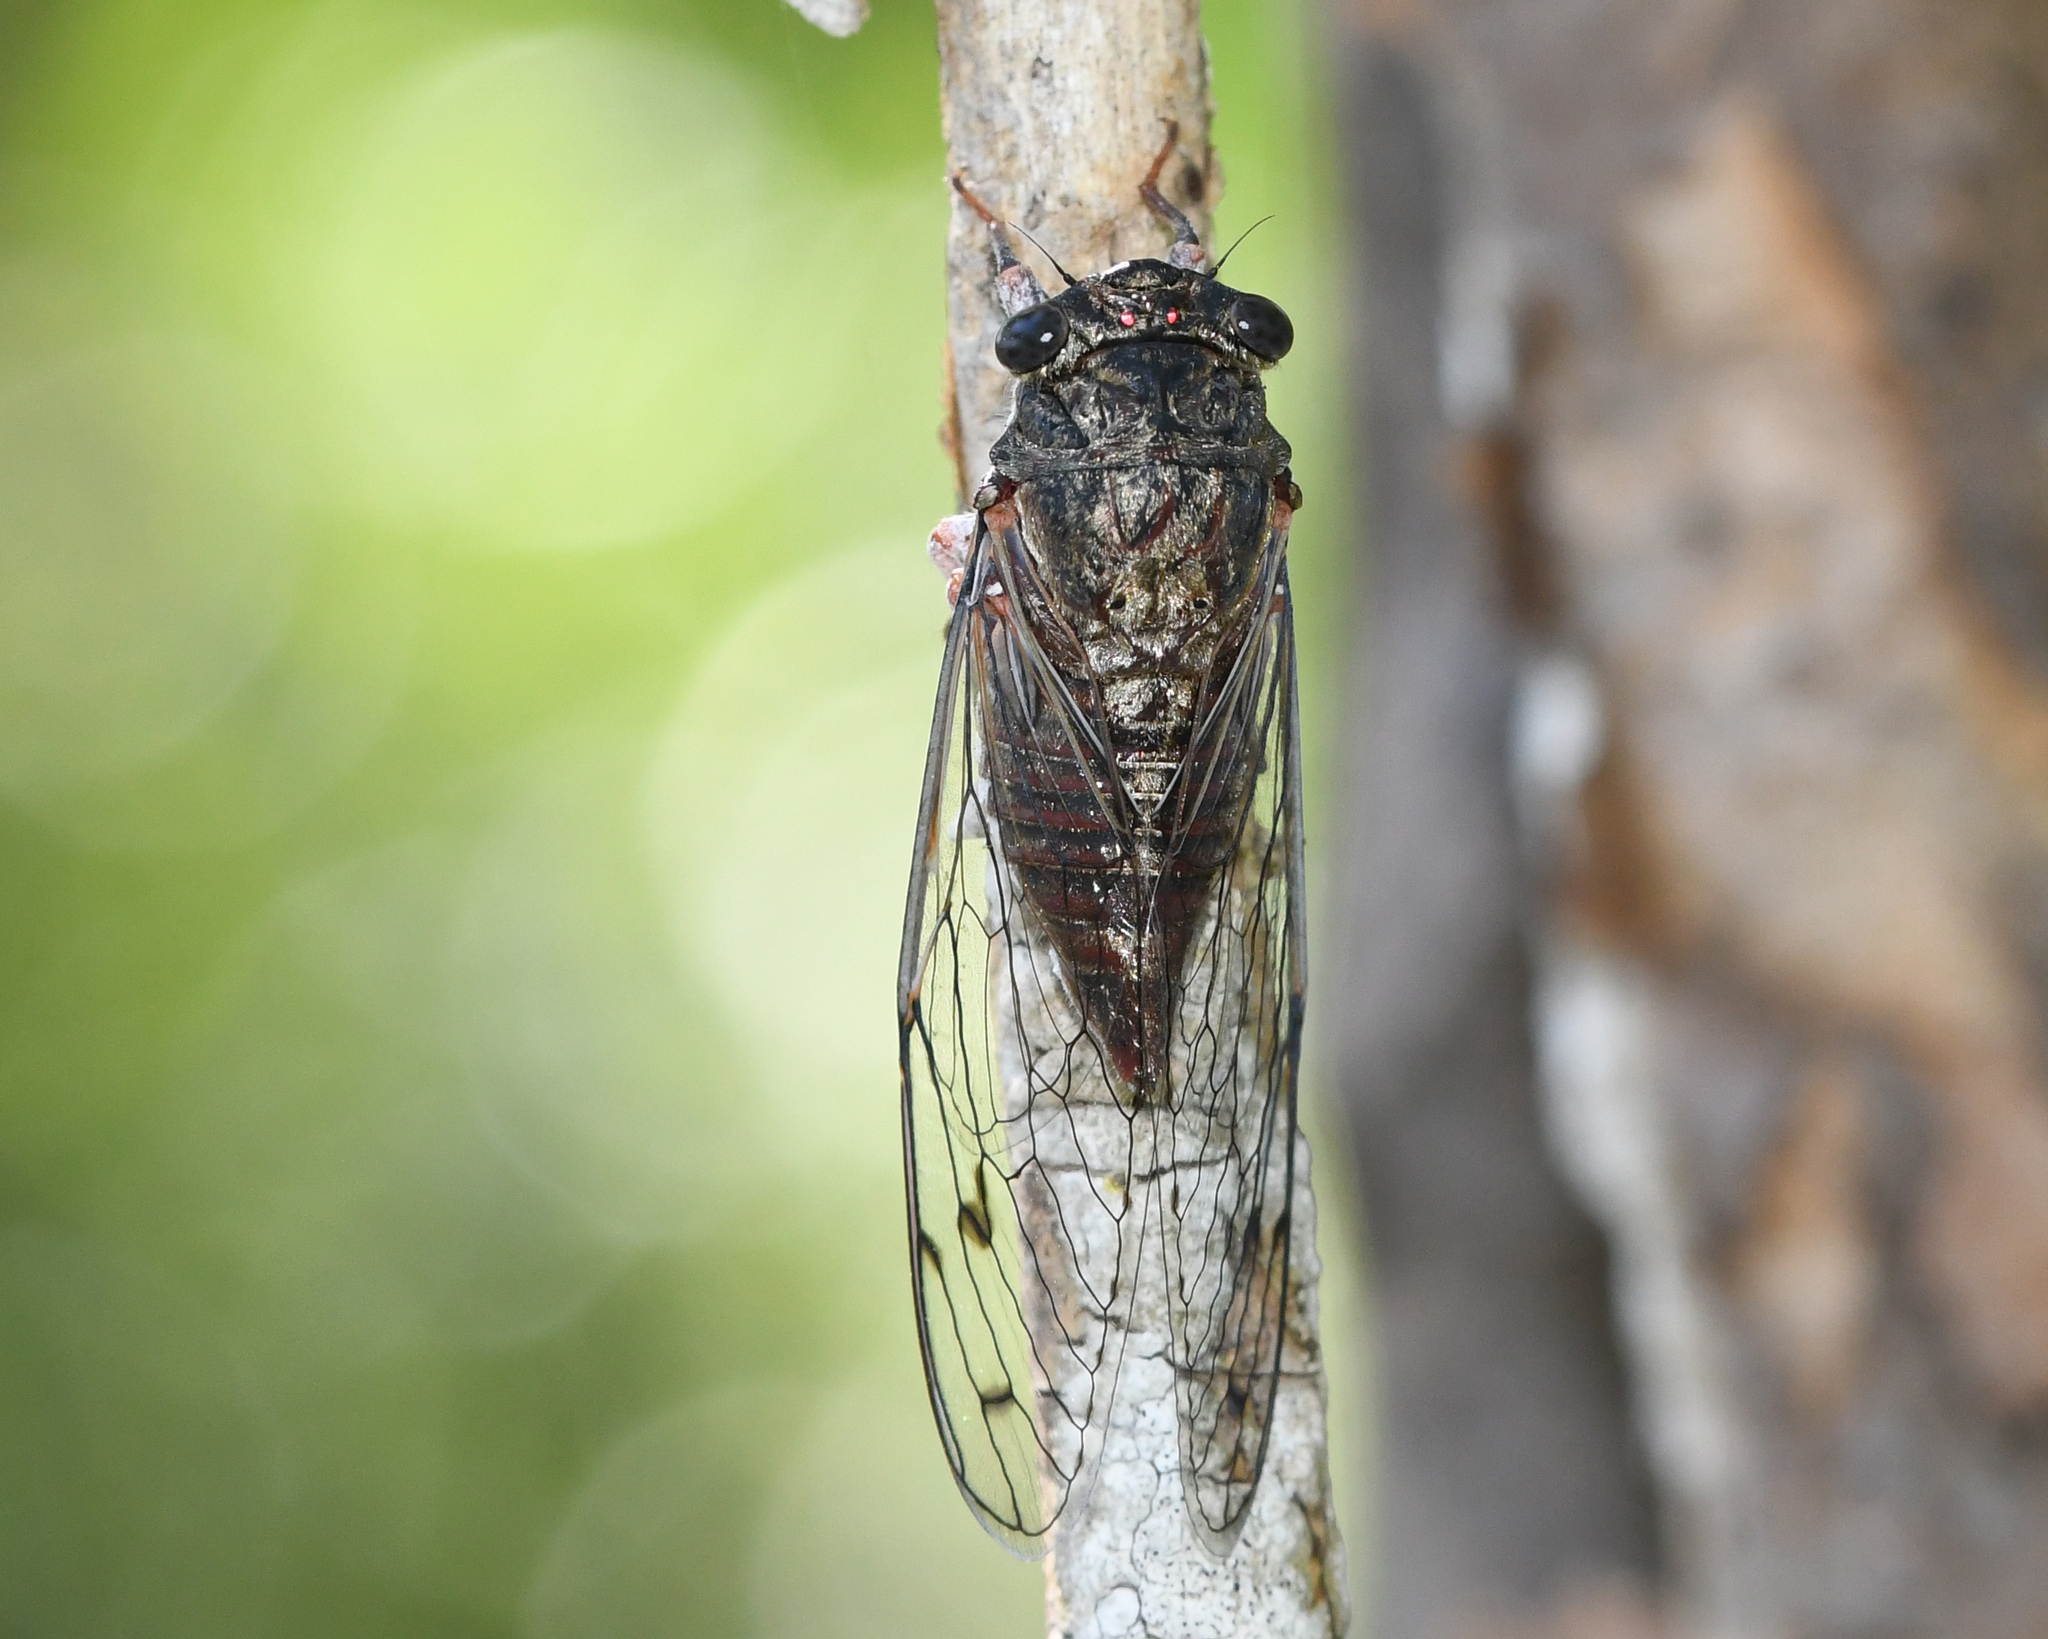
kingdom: Animalia
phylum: Arthropoda
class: Insecta
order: Hemiptera
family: Cicadidae
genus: Ollanta
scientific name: Ollanta melvini
